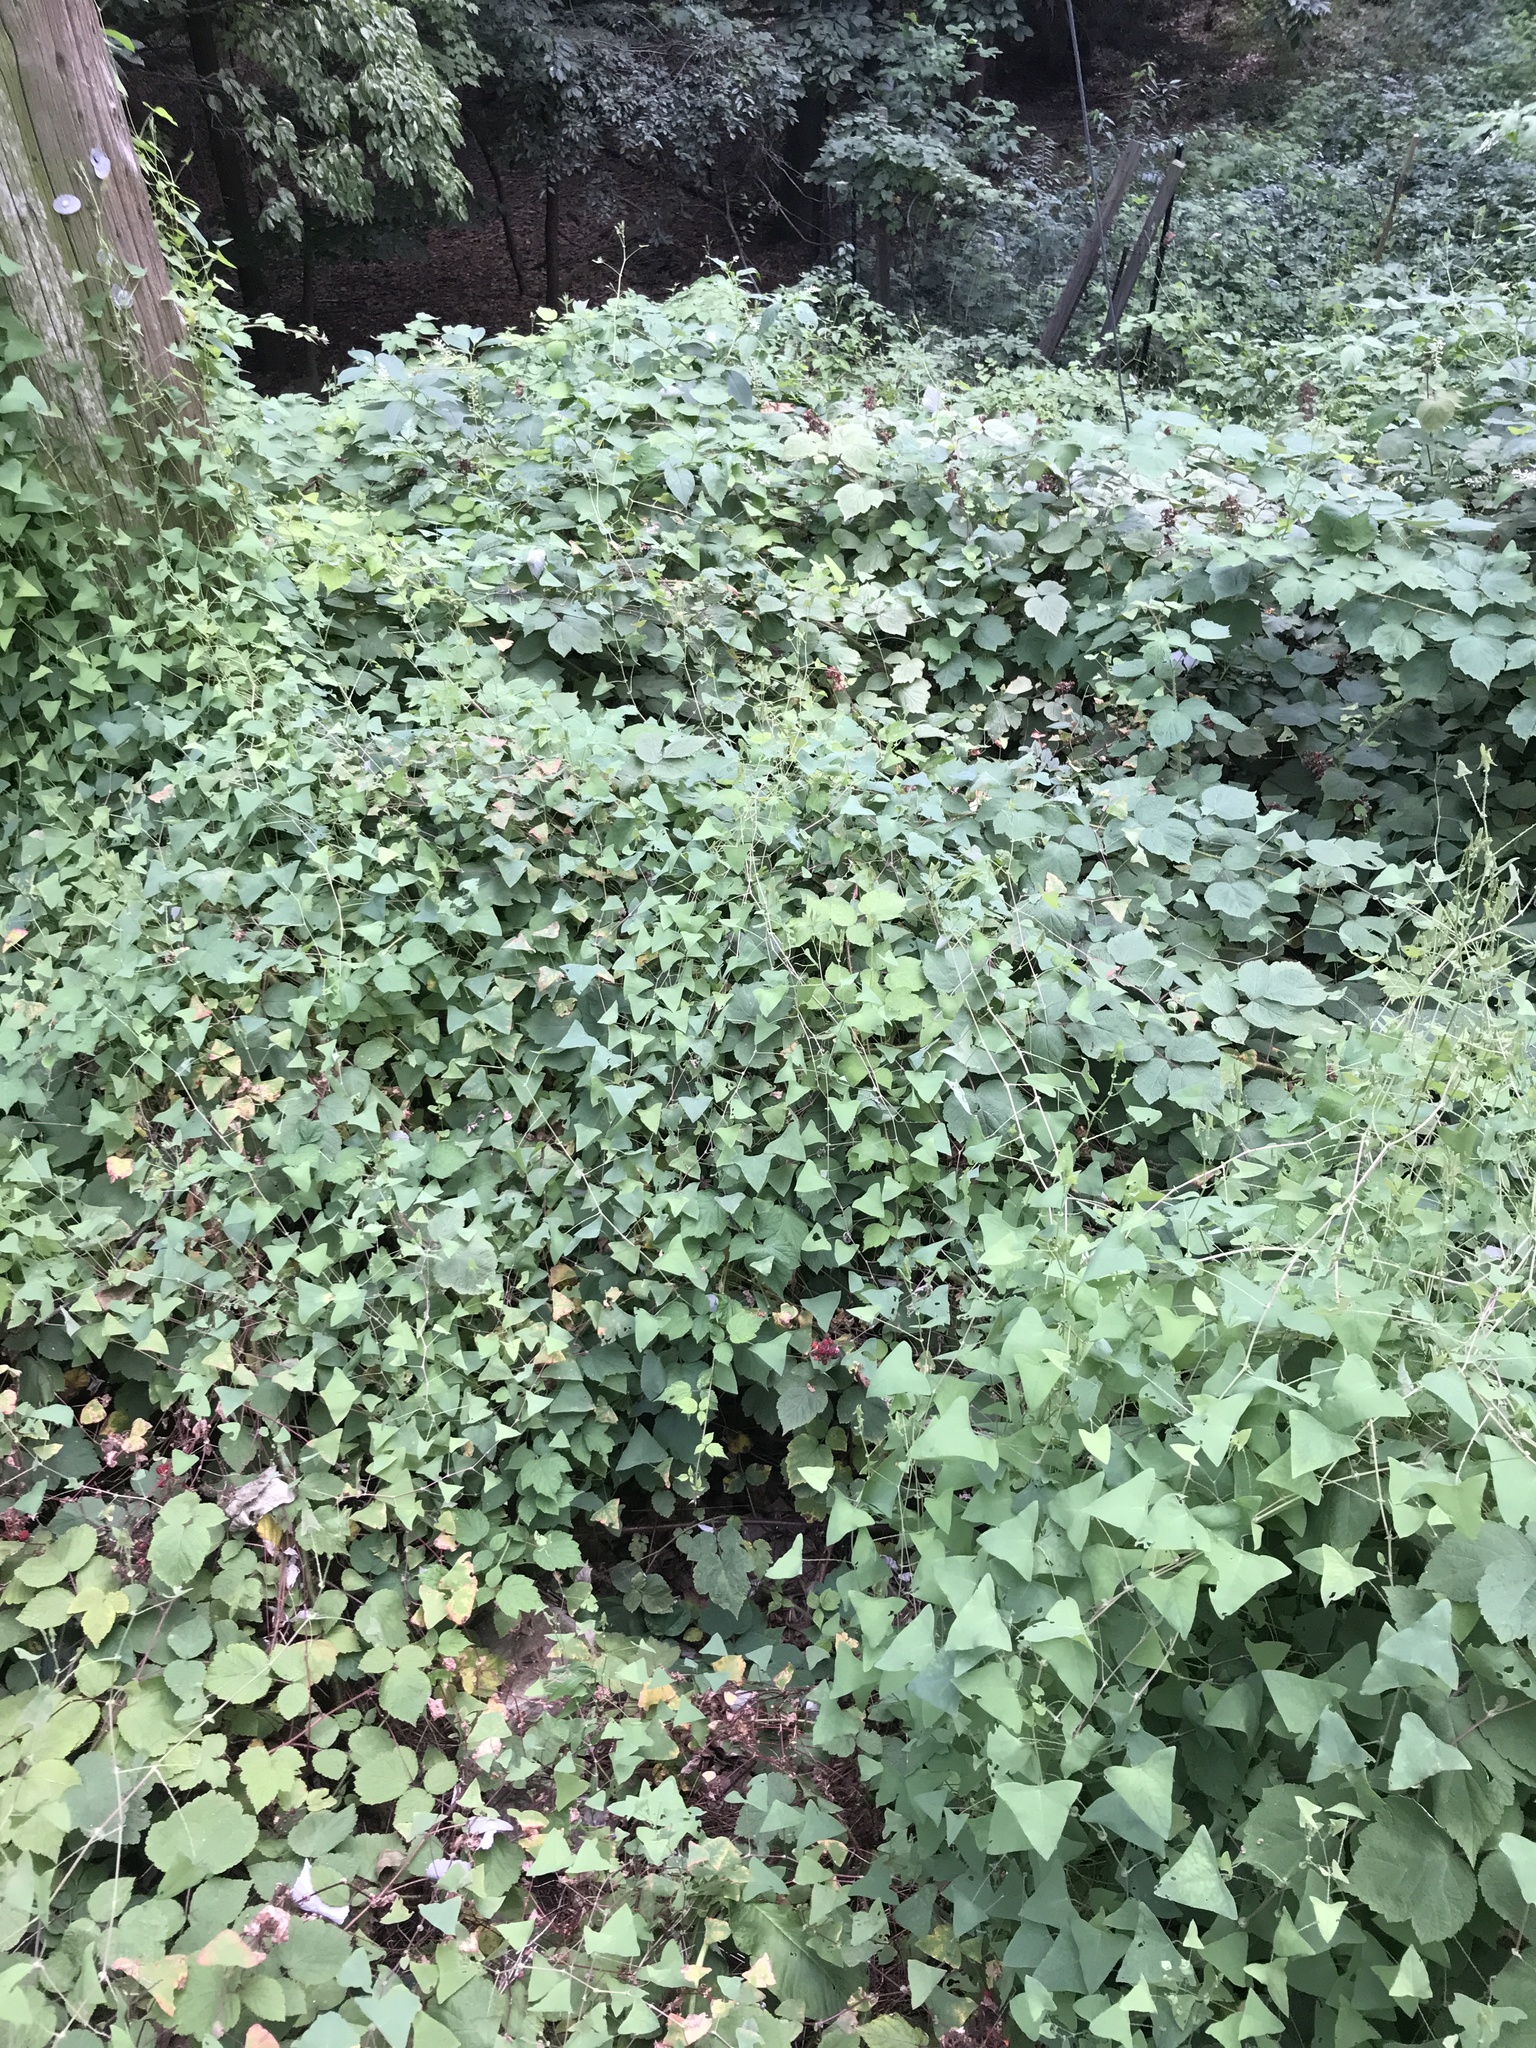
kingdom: Plantae
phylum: Tracheophyta
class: Magnoliopsida
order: Caryophyllales
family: Polygonaceae
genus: Persicaria
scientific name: Persicaria perfoliata
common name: Asiatic tearthumb
